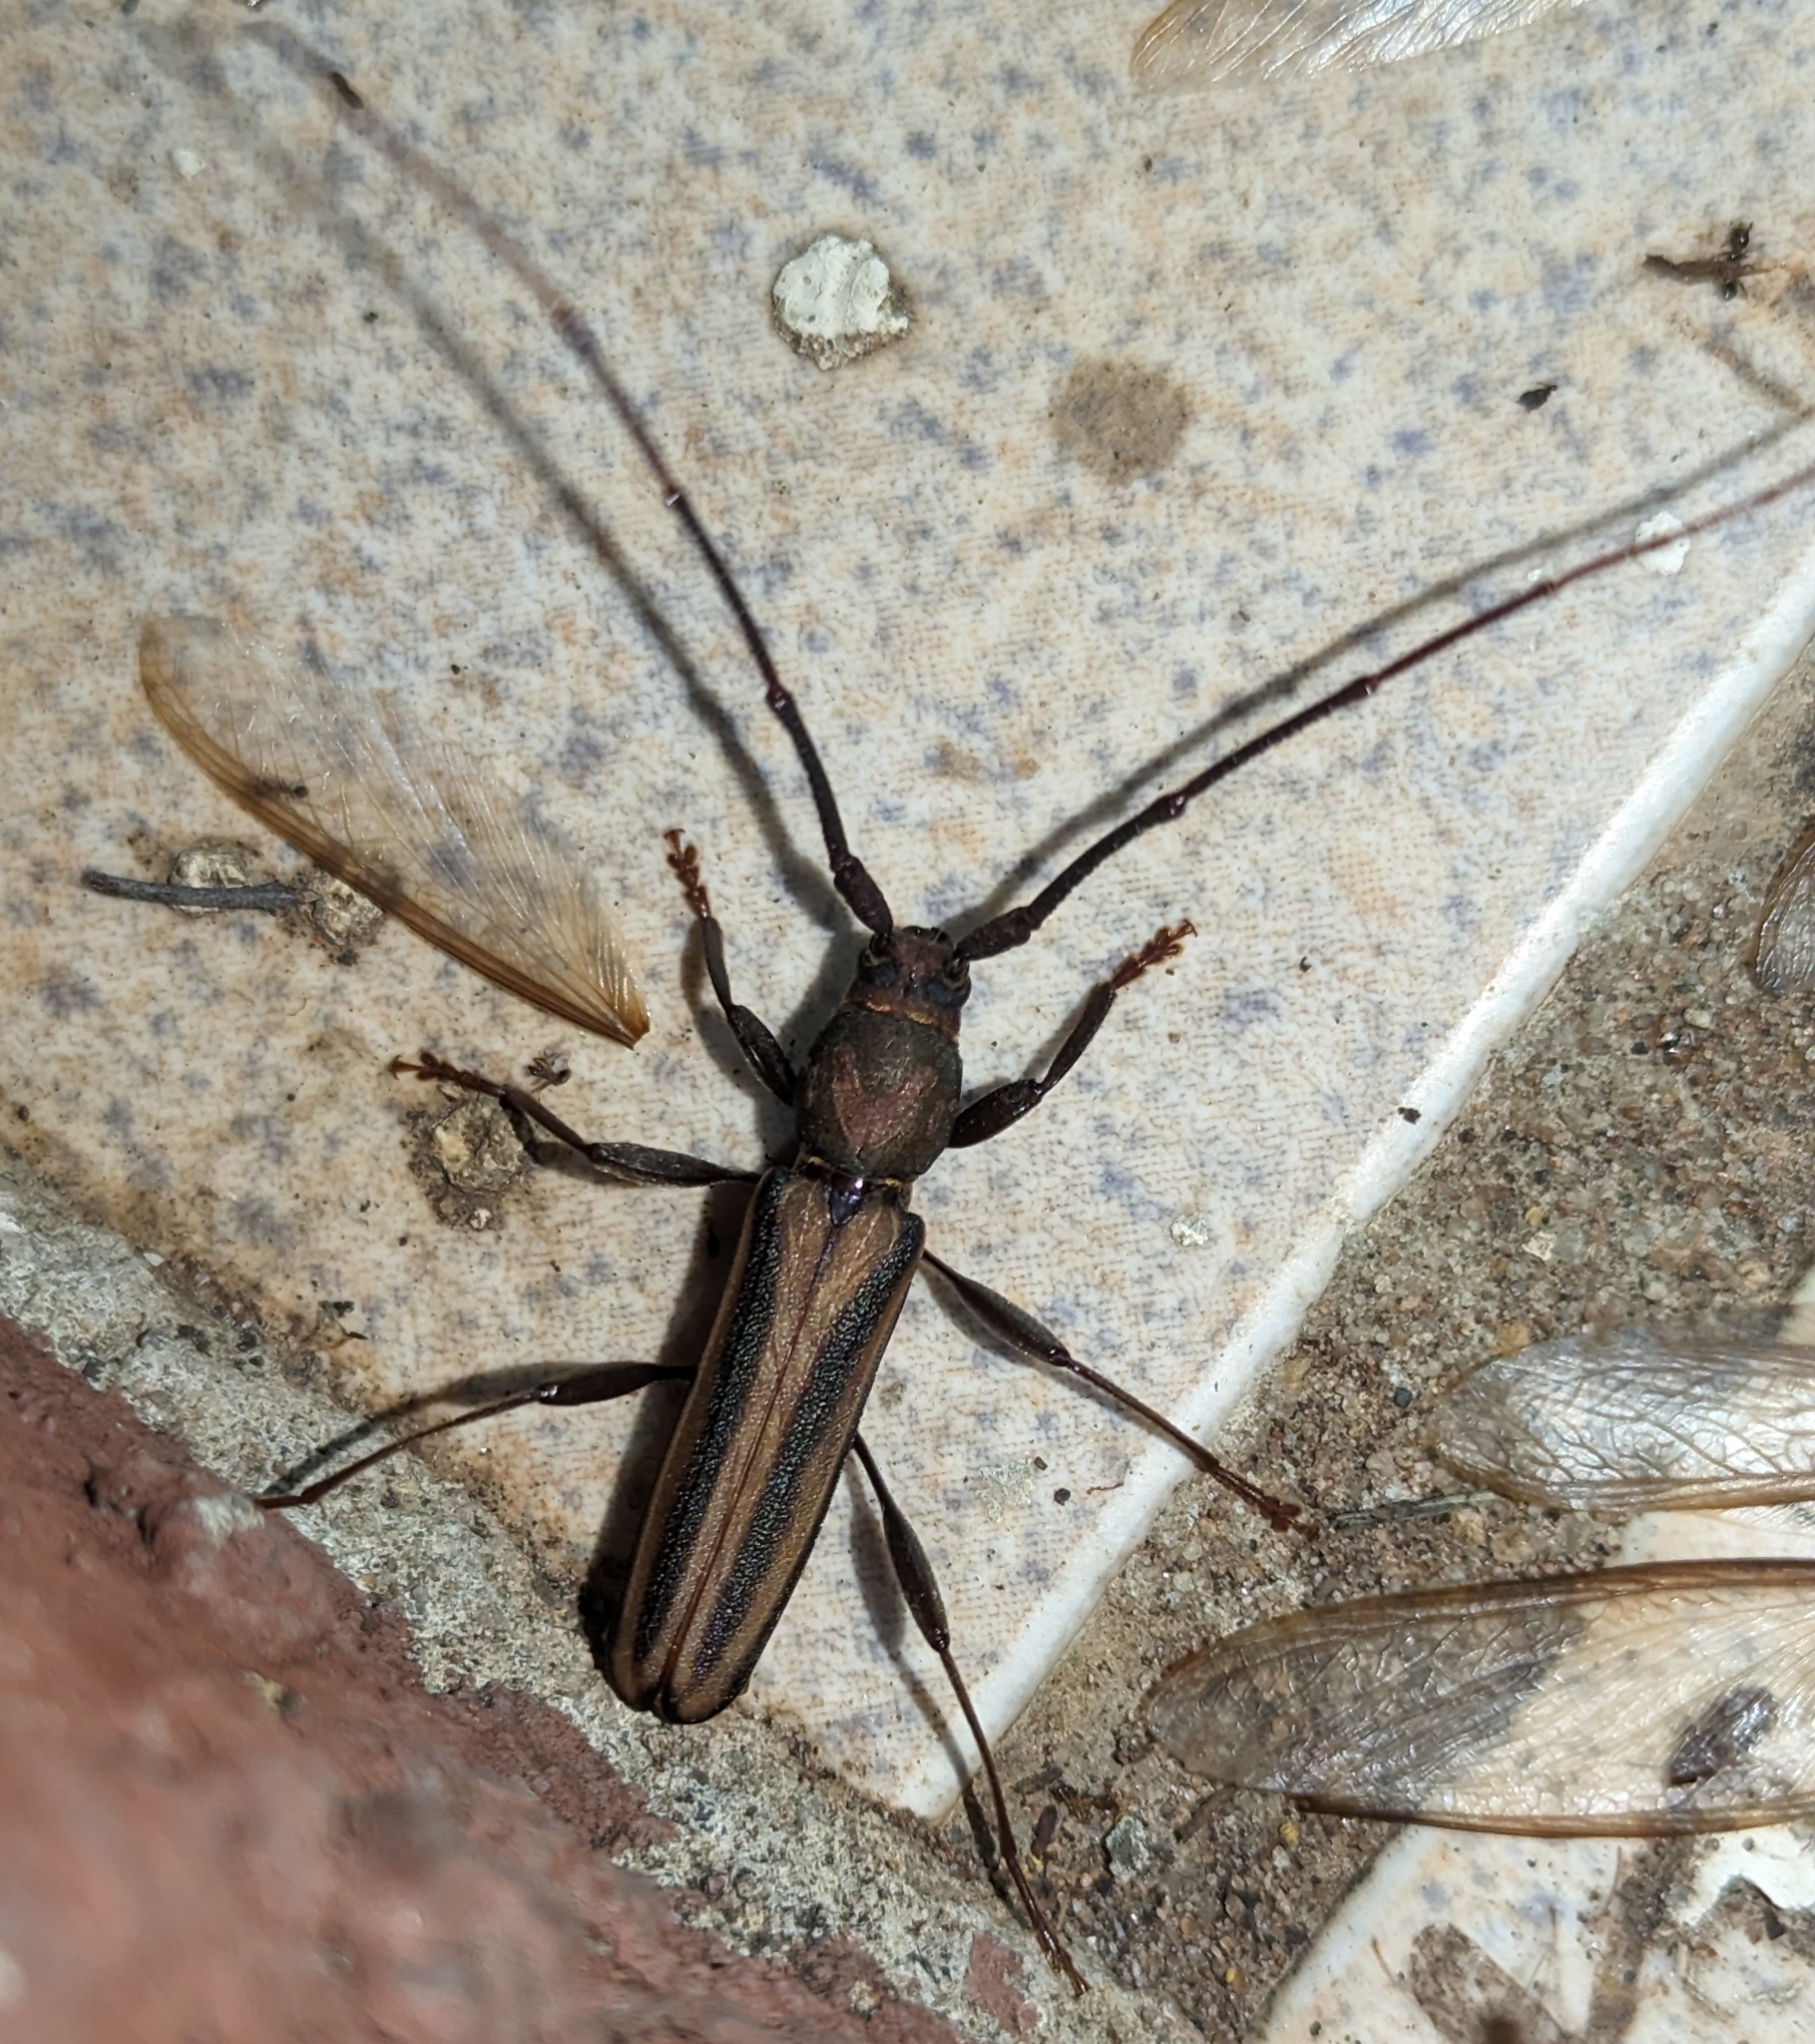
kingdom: Animalia
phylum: Arthropoda
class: Insecta
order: Coleoptera
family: Cerambycidae
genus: Xystrocera
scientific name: Xystrocera dispar
